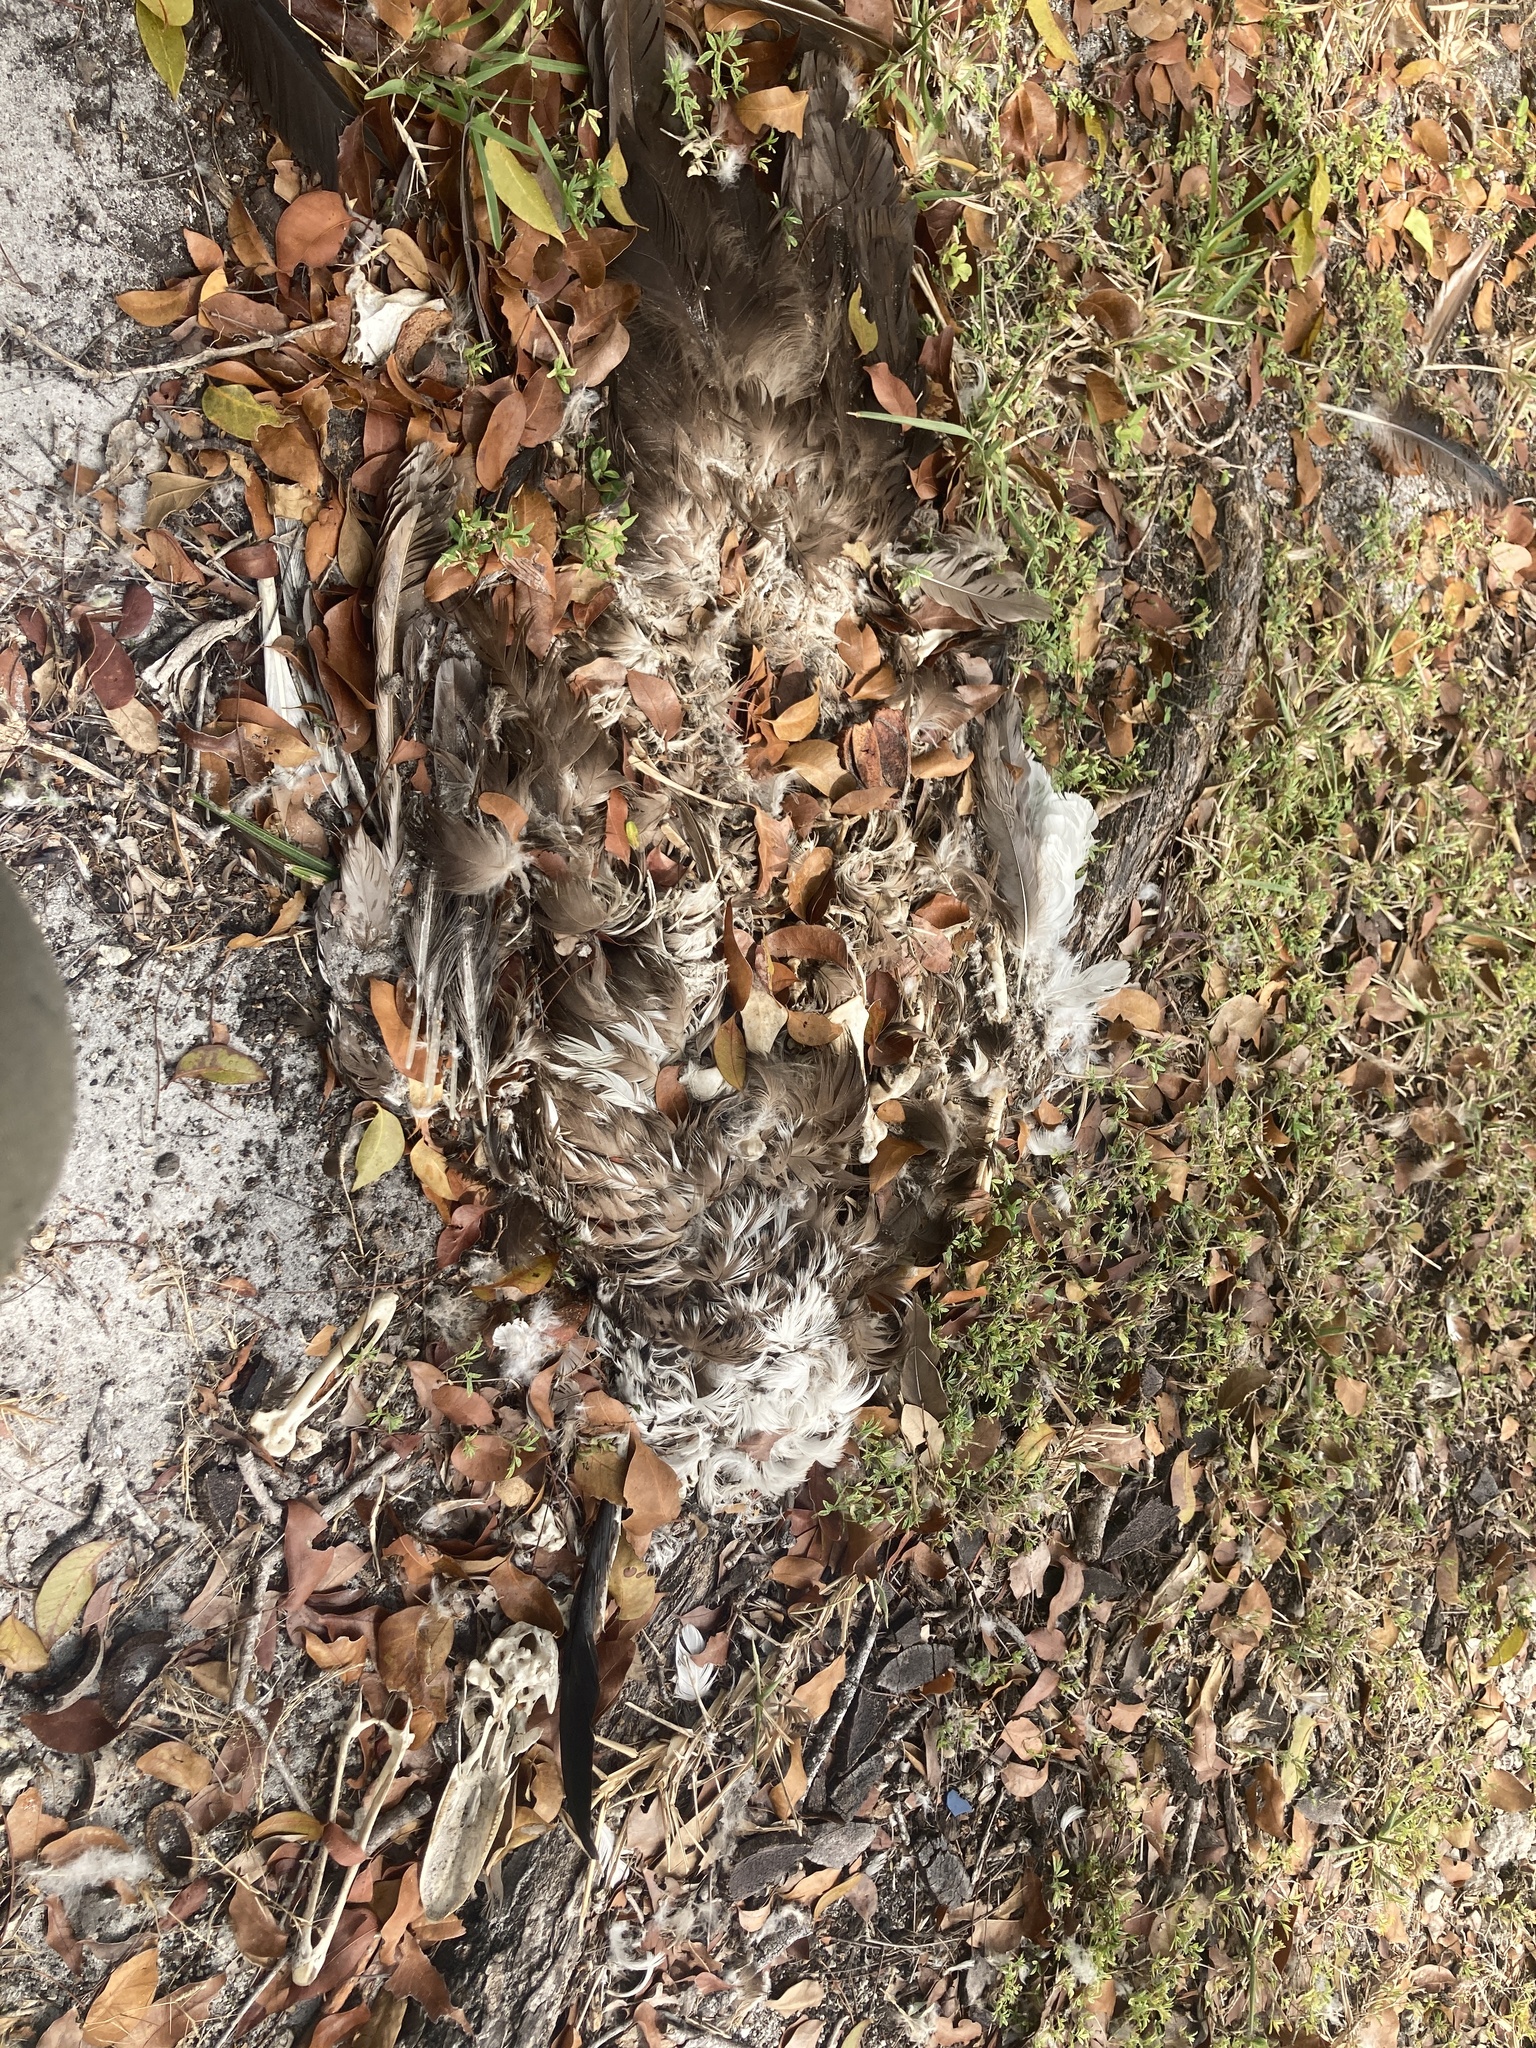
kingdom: Animalia
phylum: Chordata
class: Aves
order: Anseriformes
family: Anatidae
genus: Cairina
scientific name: Cairina moschata
